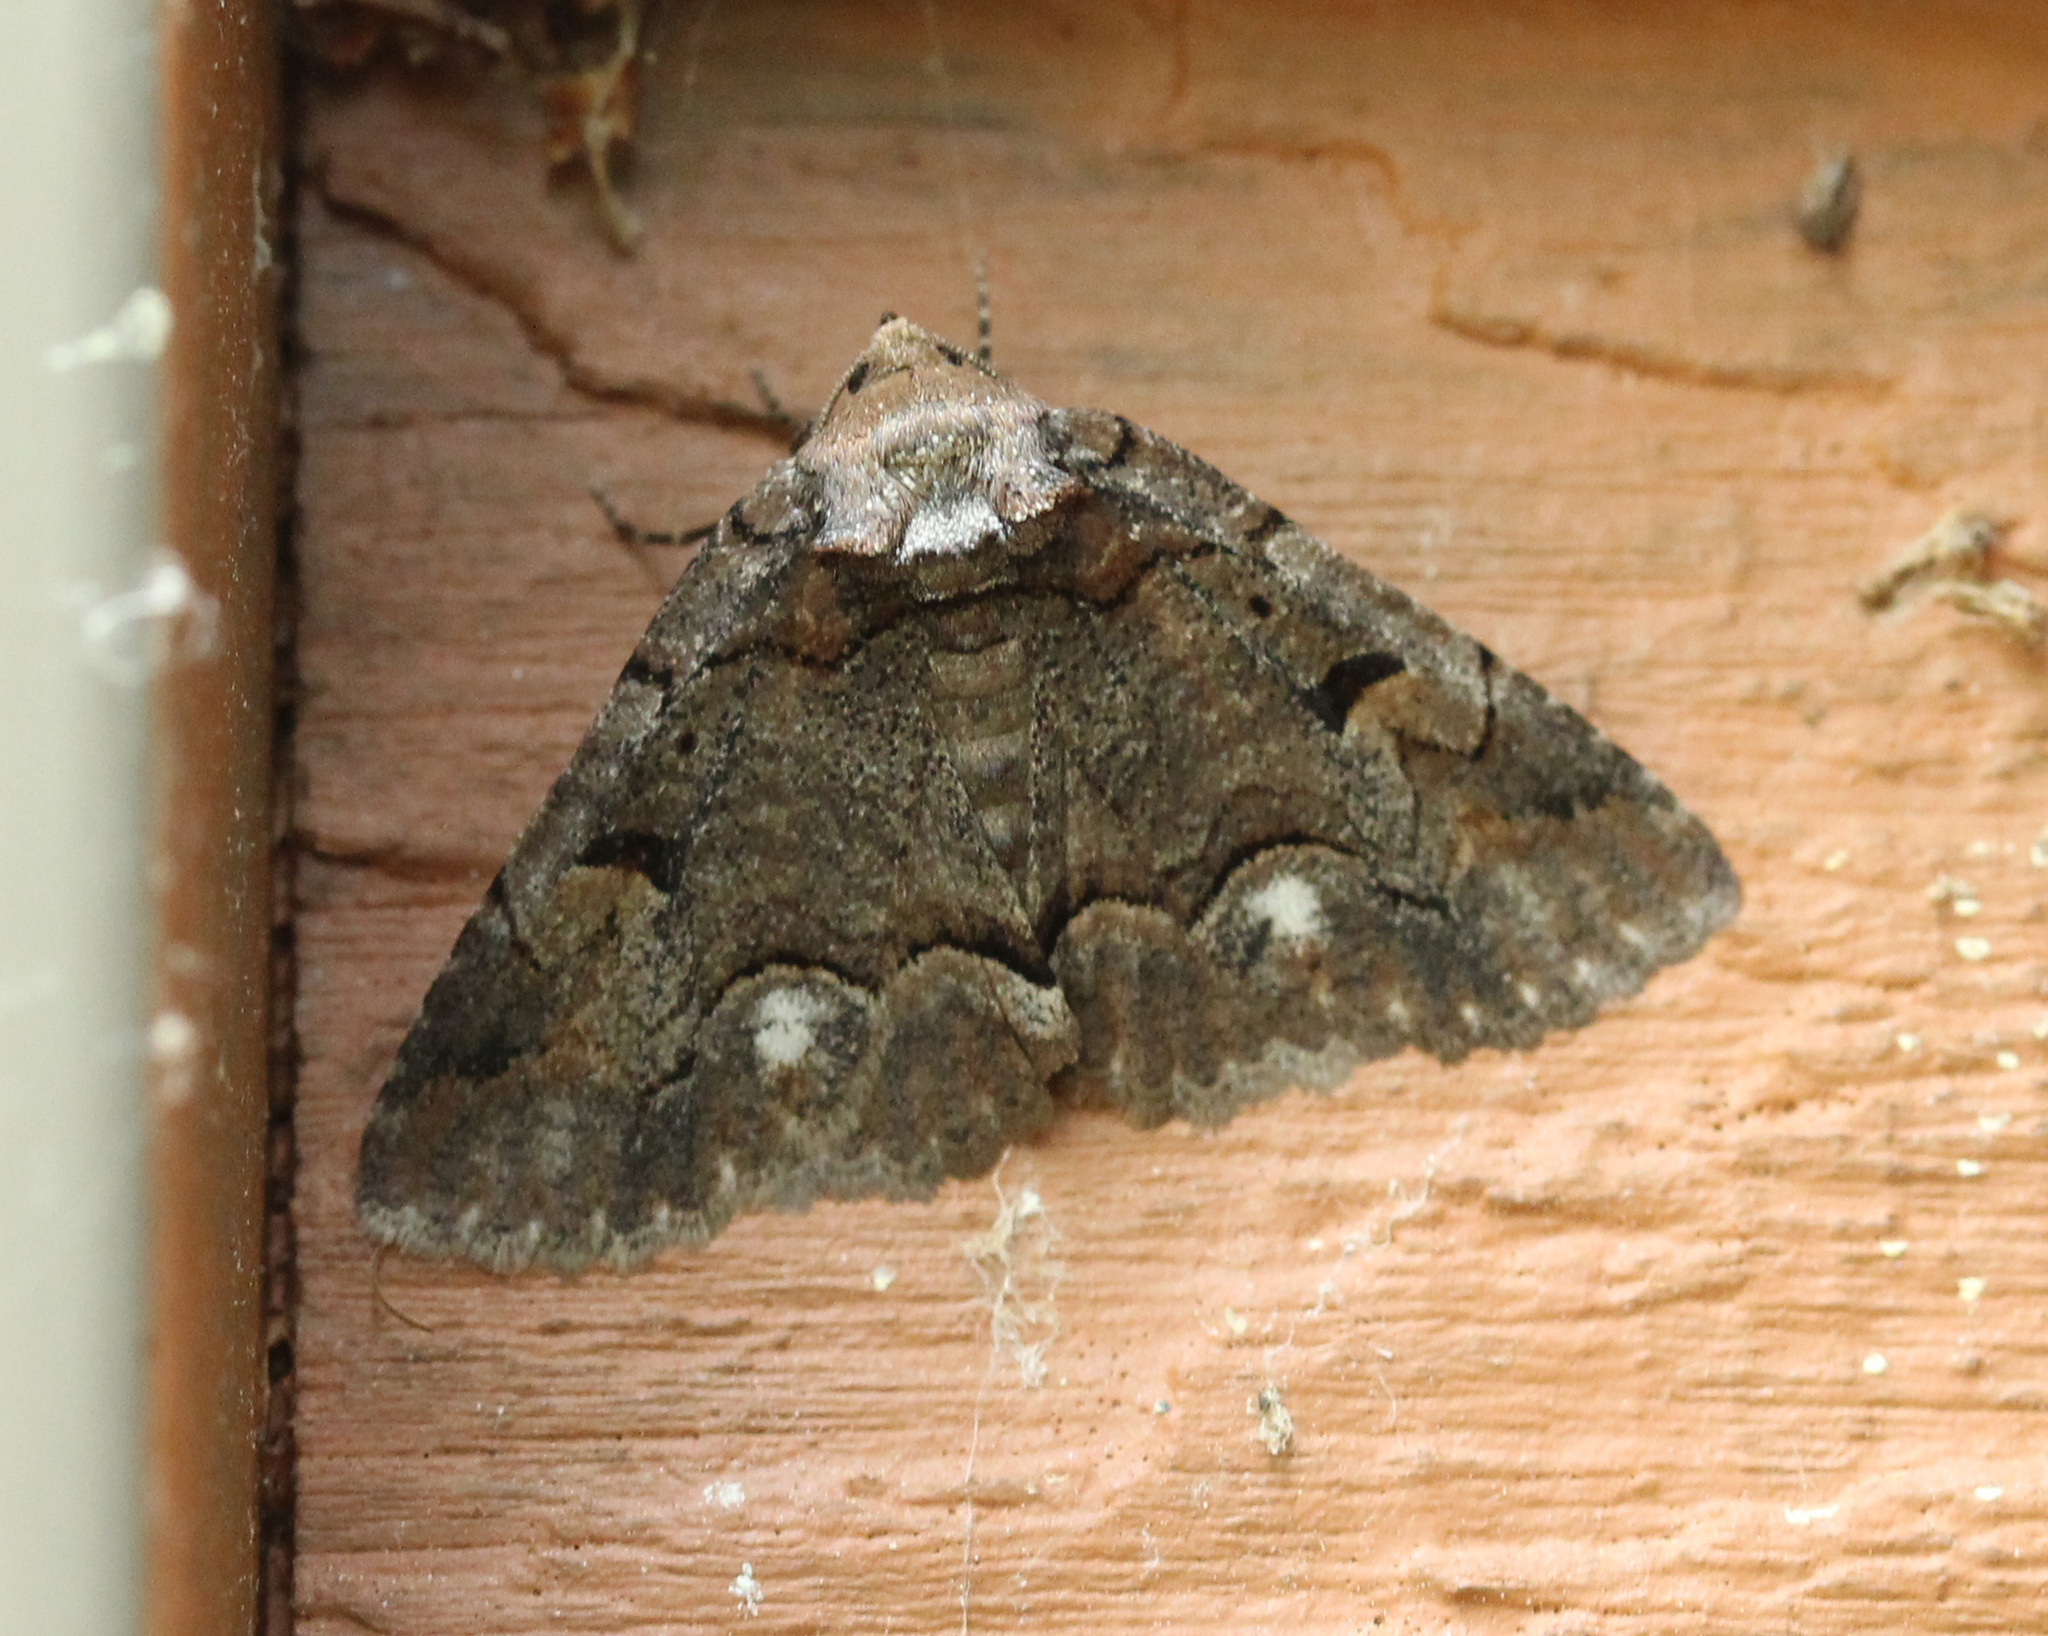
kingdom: Animalia
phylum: Arthropoda
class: Insecta
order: Lepidoptera
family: Erebidae
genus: Zale
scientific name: Zale helata
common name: Brown-spotted zale moth
